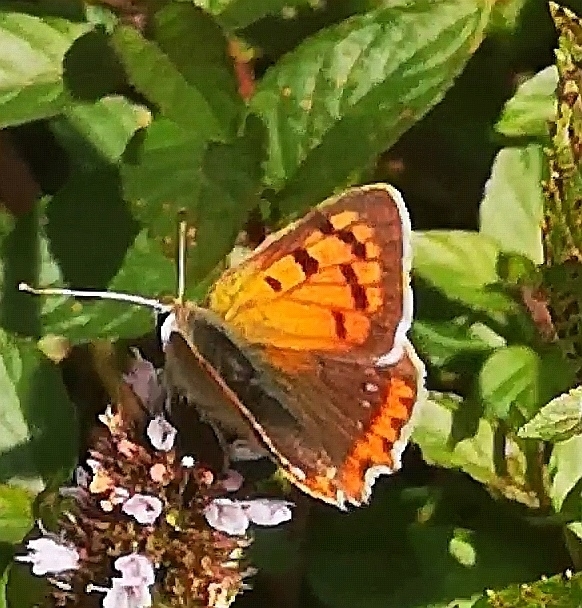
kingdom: Animalia
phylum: Arthropoda
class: Insecta
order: Lepidoptera
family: Lycaenidae
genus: Lycaena
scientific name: Lycaena phlaeas
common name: Small copper
